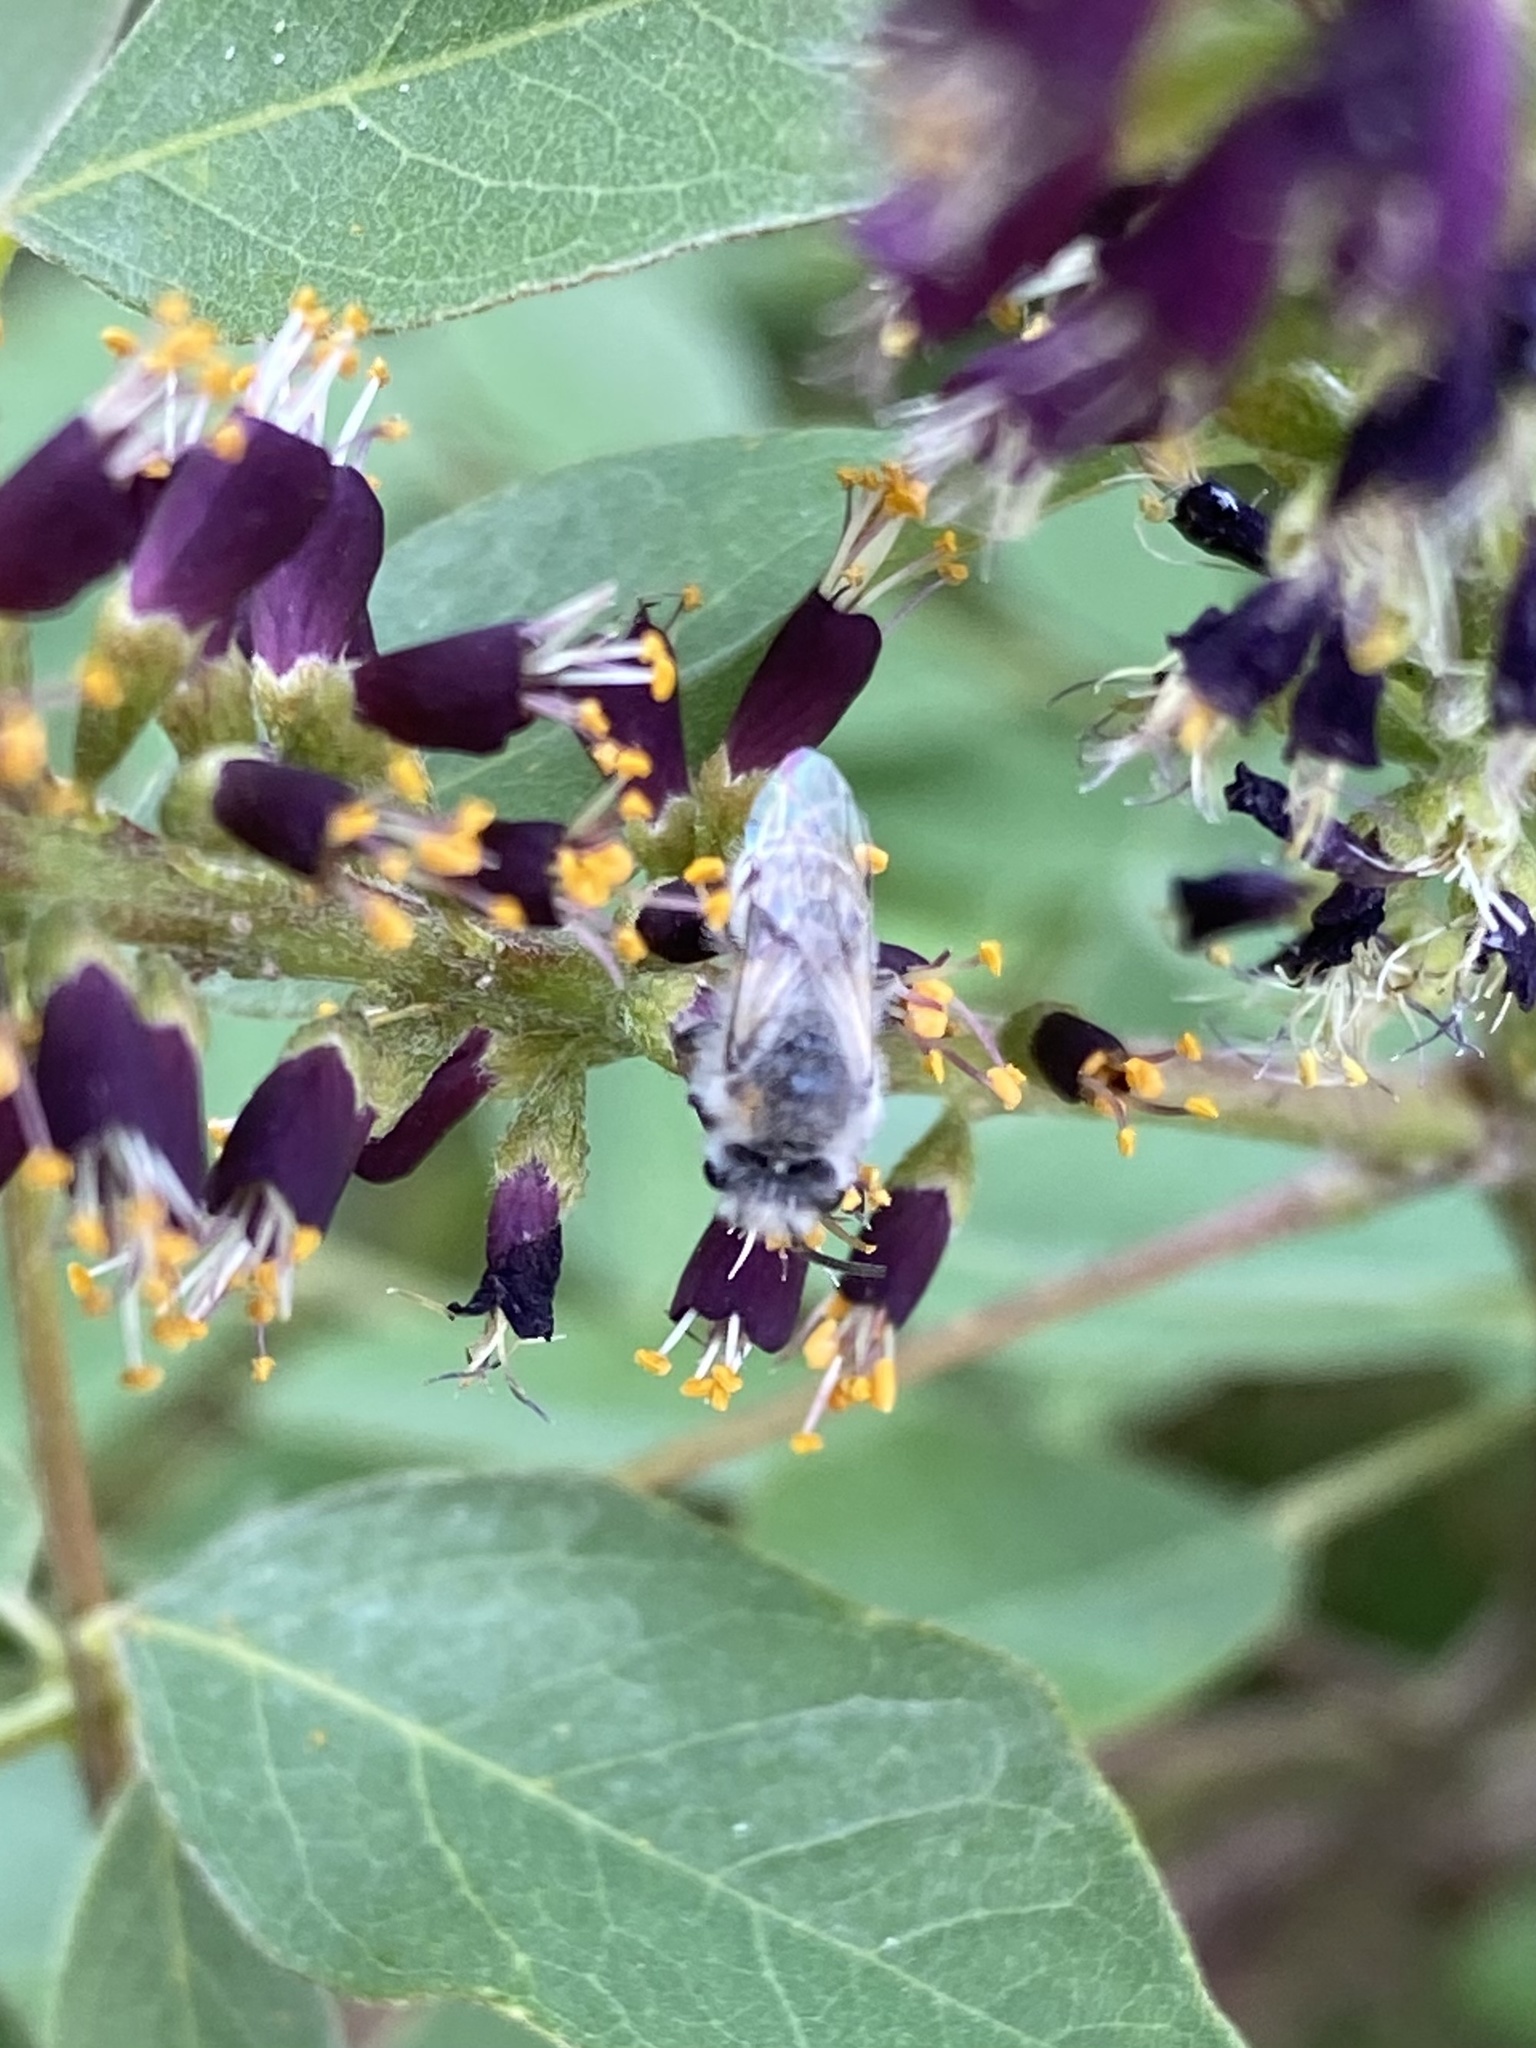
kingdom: Animalia
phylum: Arthropoda
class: Insecta
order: Hymenoptera
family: Colletidae
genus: Colletes
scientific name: Colletes
